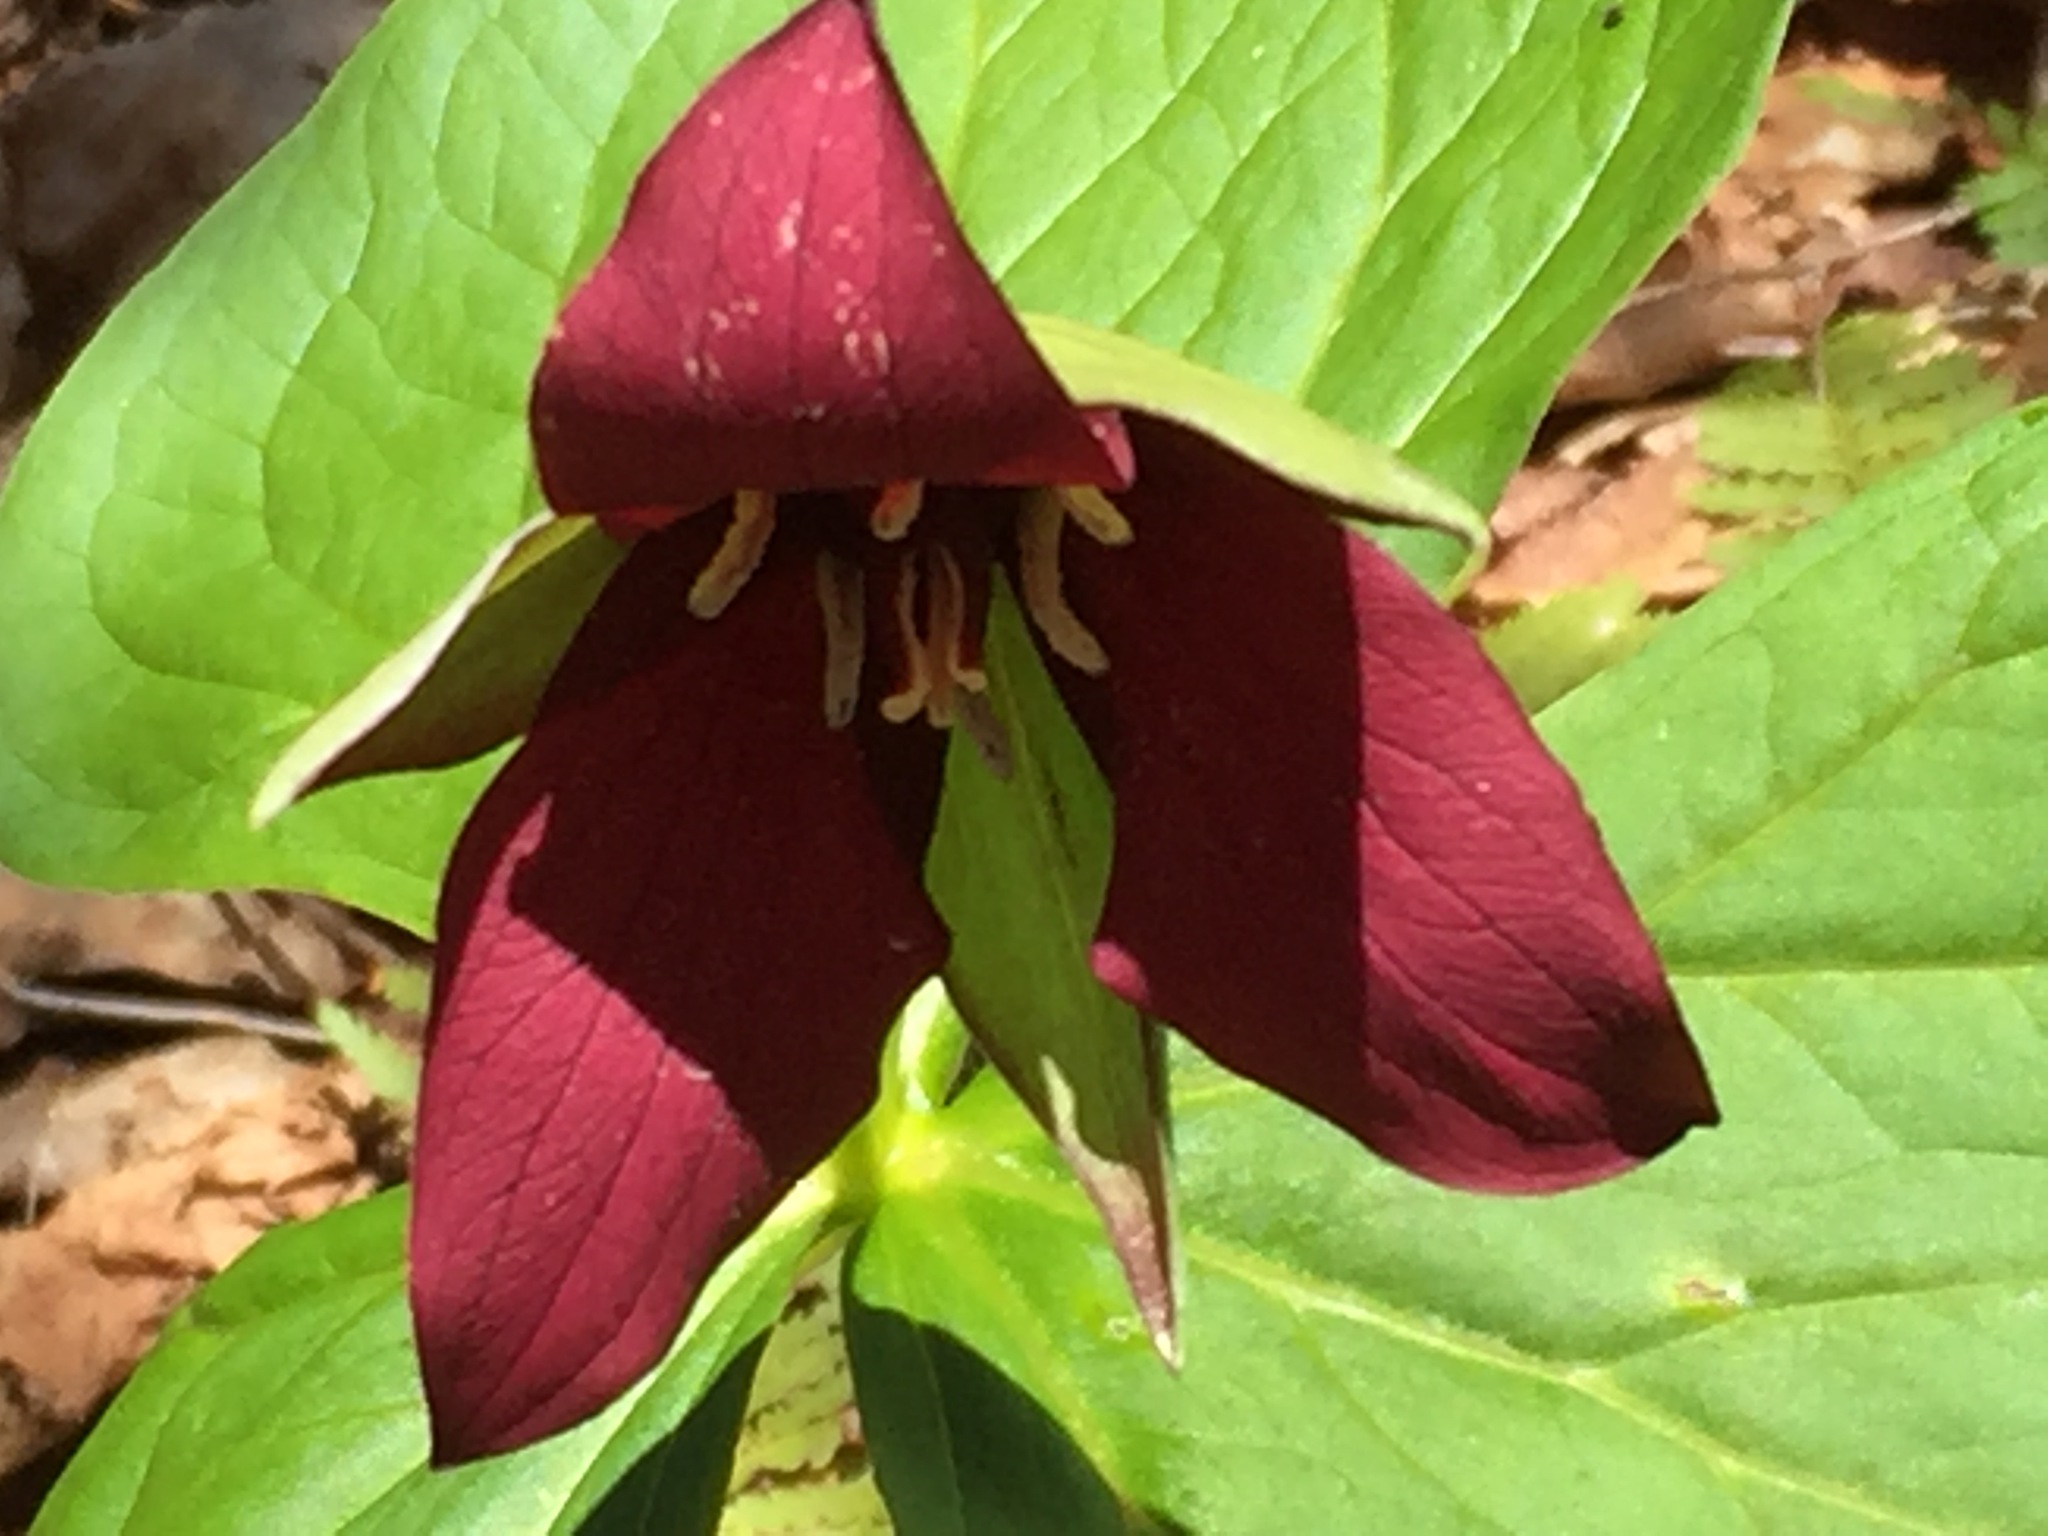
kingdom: Plantae
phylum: Tracheophyta
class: Liliopsida
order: Liliales
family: Melanthiaceae
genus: Trillium
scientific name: Trillium erectum
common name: Purple trillium
